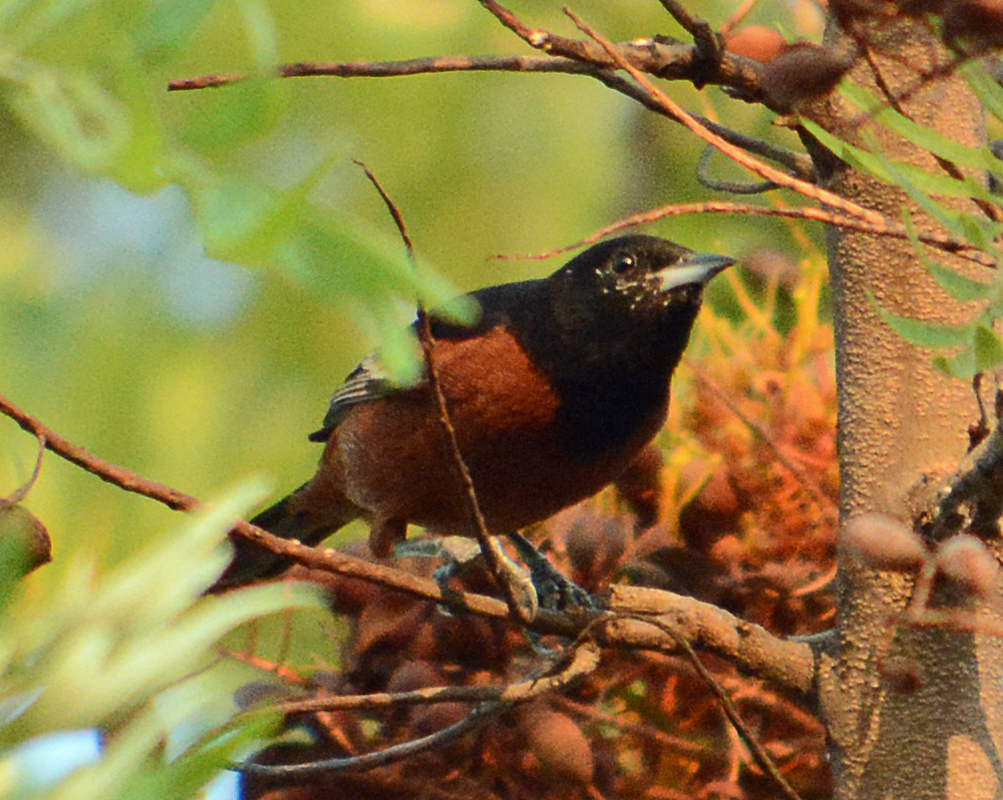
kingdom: Animalia
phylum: Chordata
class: Aves
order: Passeriformes
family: Icteridae
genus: Icterus
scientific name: Icterus spurius
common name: Orchard oriole
